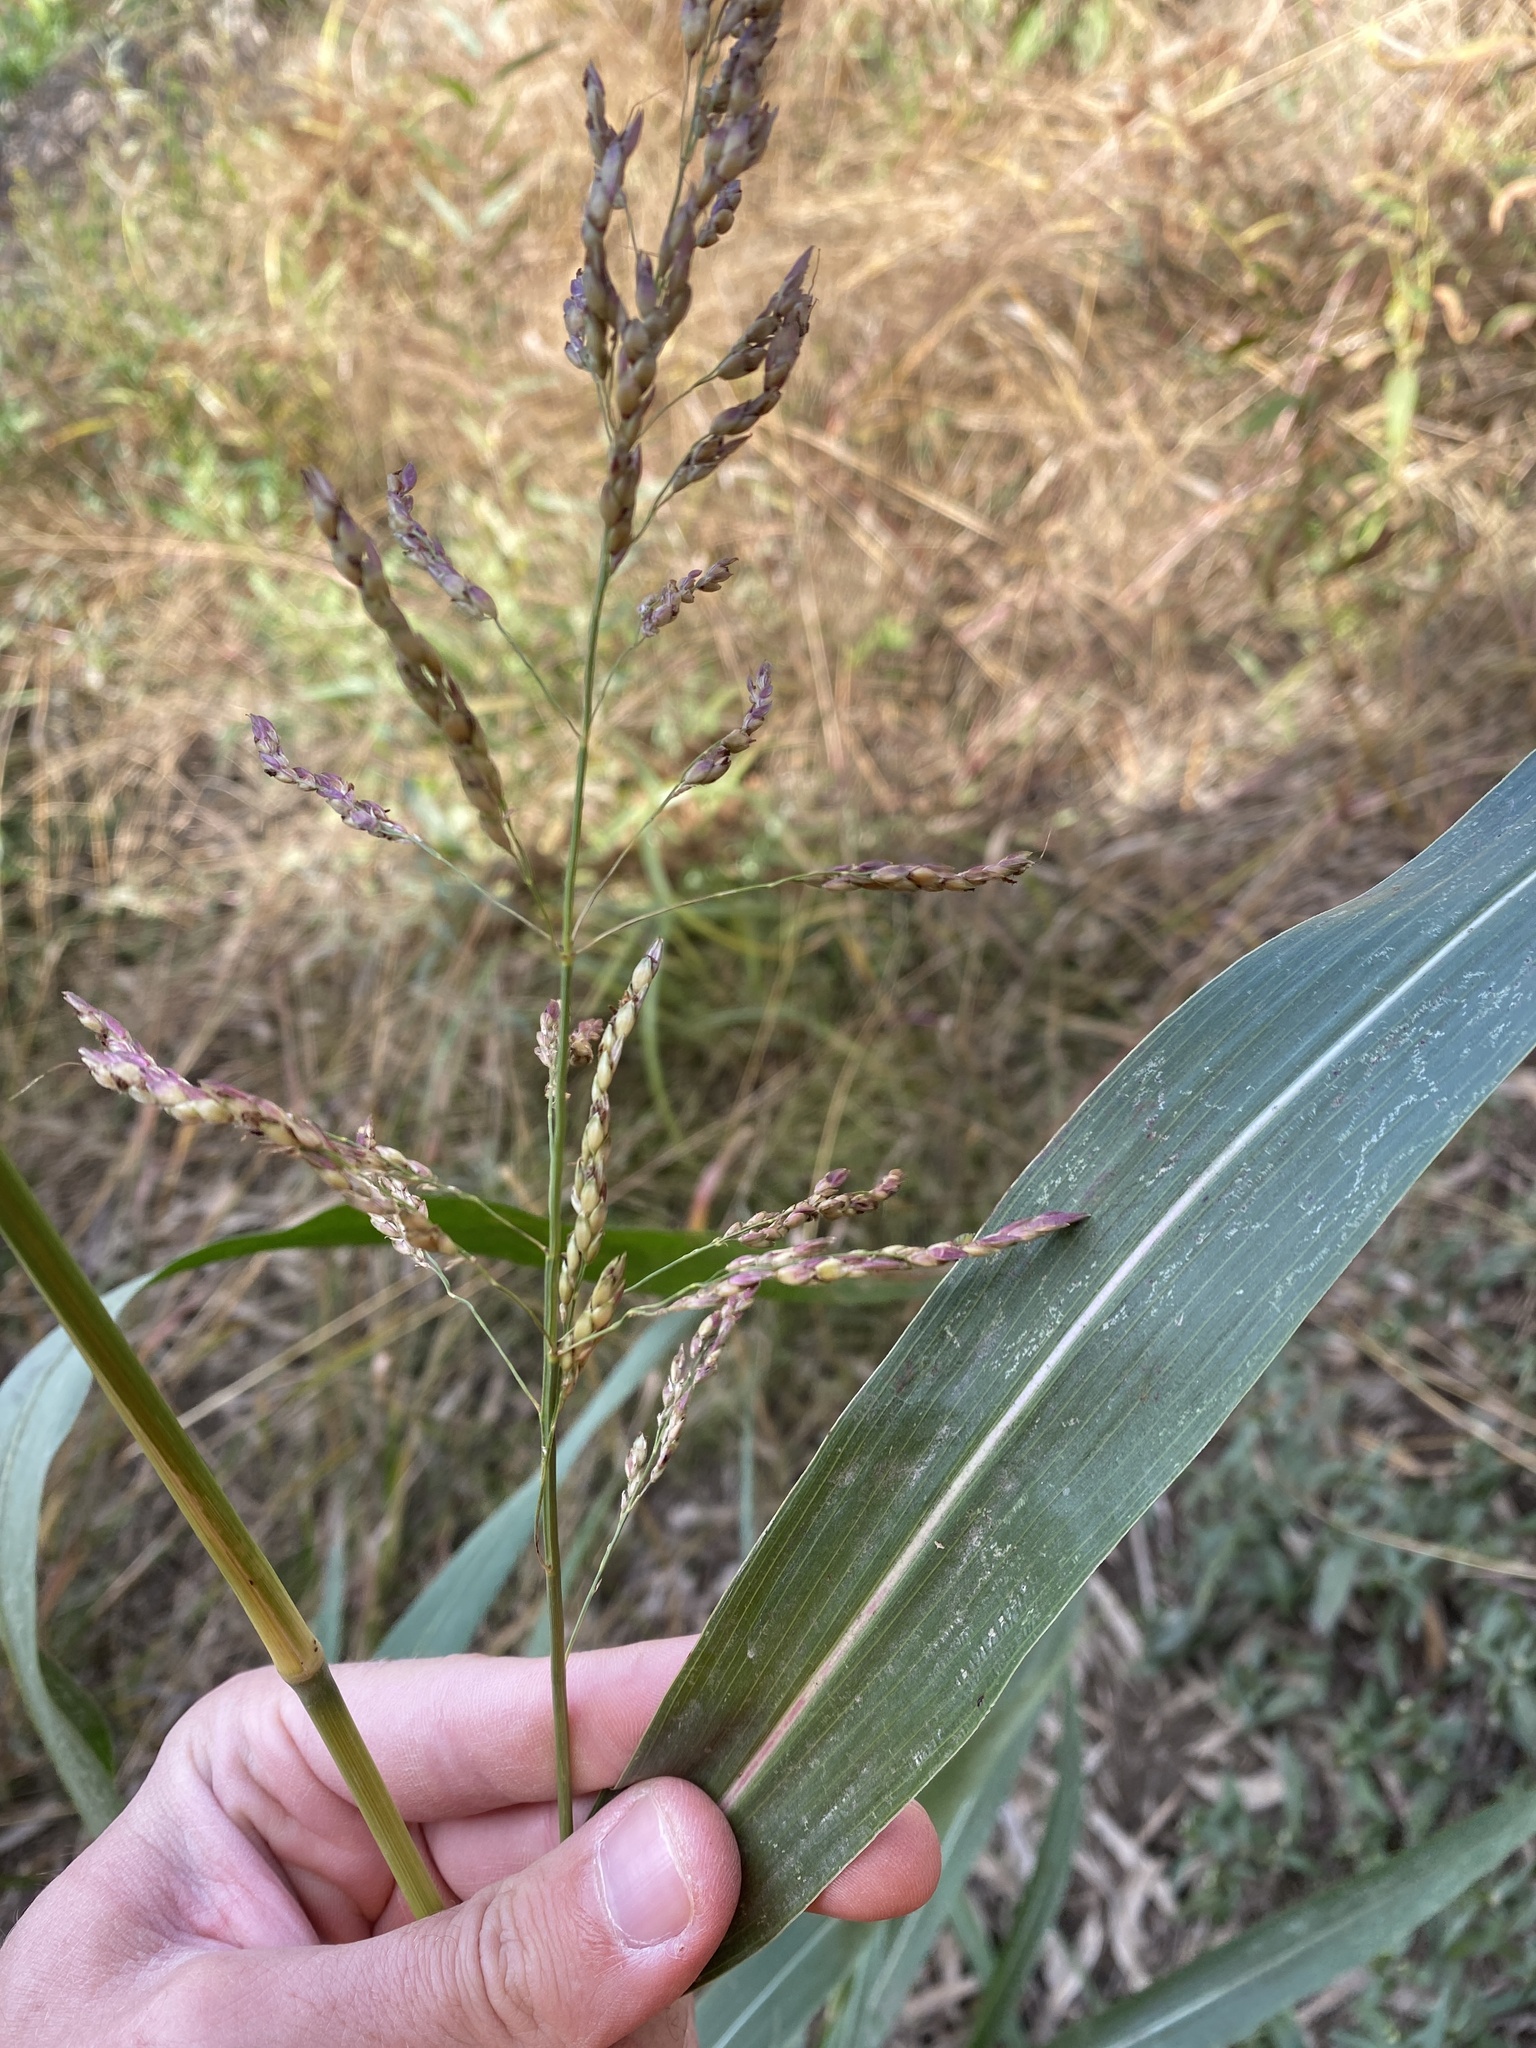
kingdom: Plantae
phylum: Tracheophyta
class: Liliopsida
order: Poales
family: Poaceae
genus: Sorghum
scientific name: Sorghum halepense
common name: Johnson-grass
